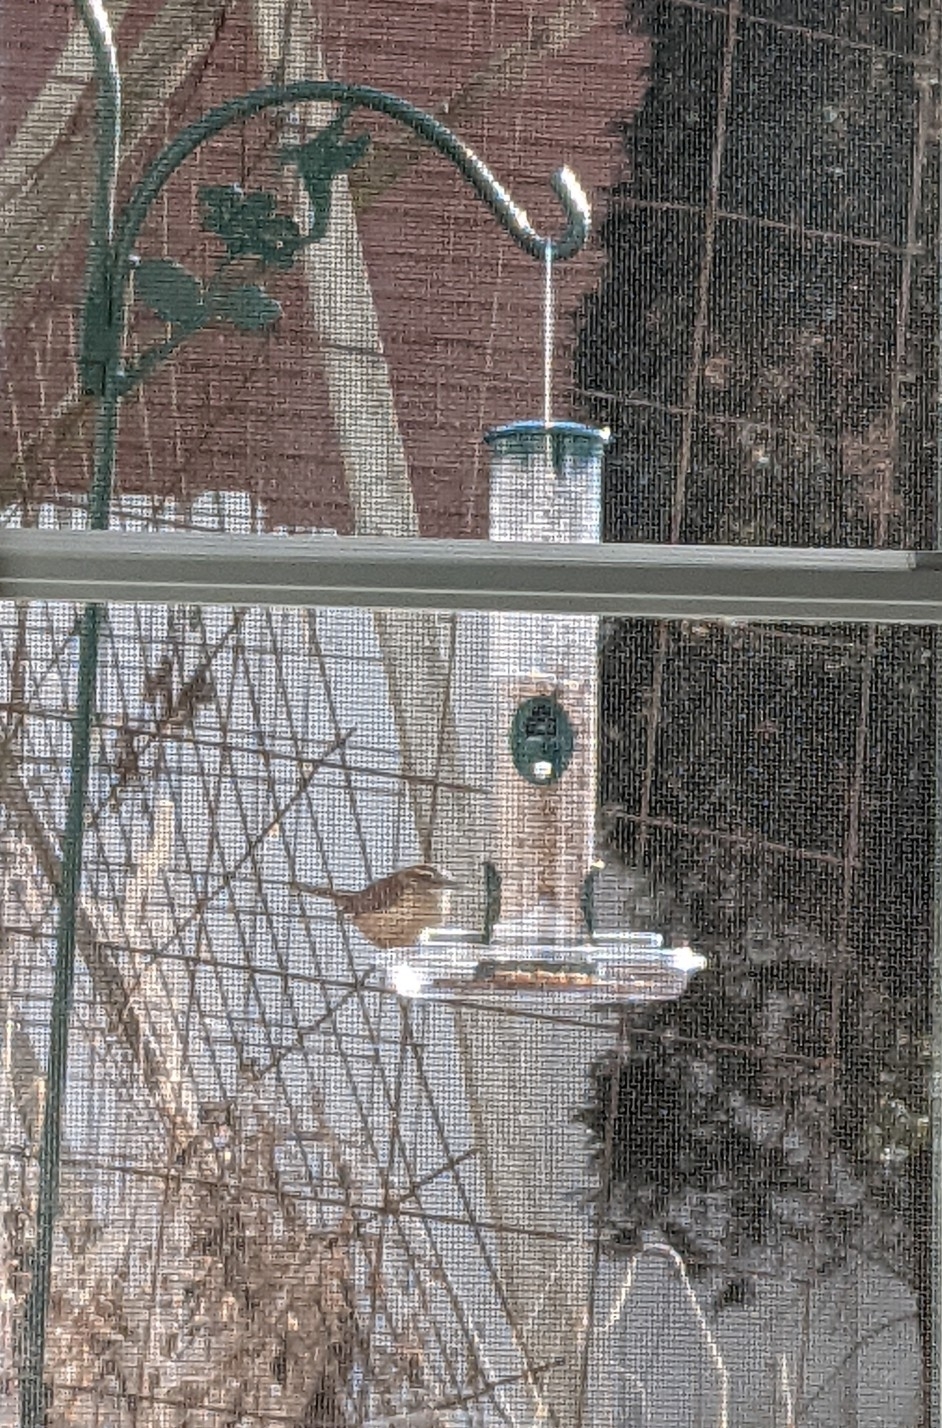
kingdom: Animalia
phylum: Chordata
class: Aves
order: Passeriformes
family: Troglodytidae
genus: Thryothorus
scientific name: Thryothorus ludovicianus
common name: Carolina wren
